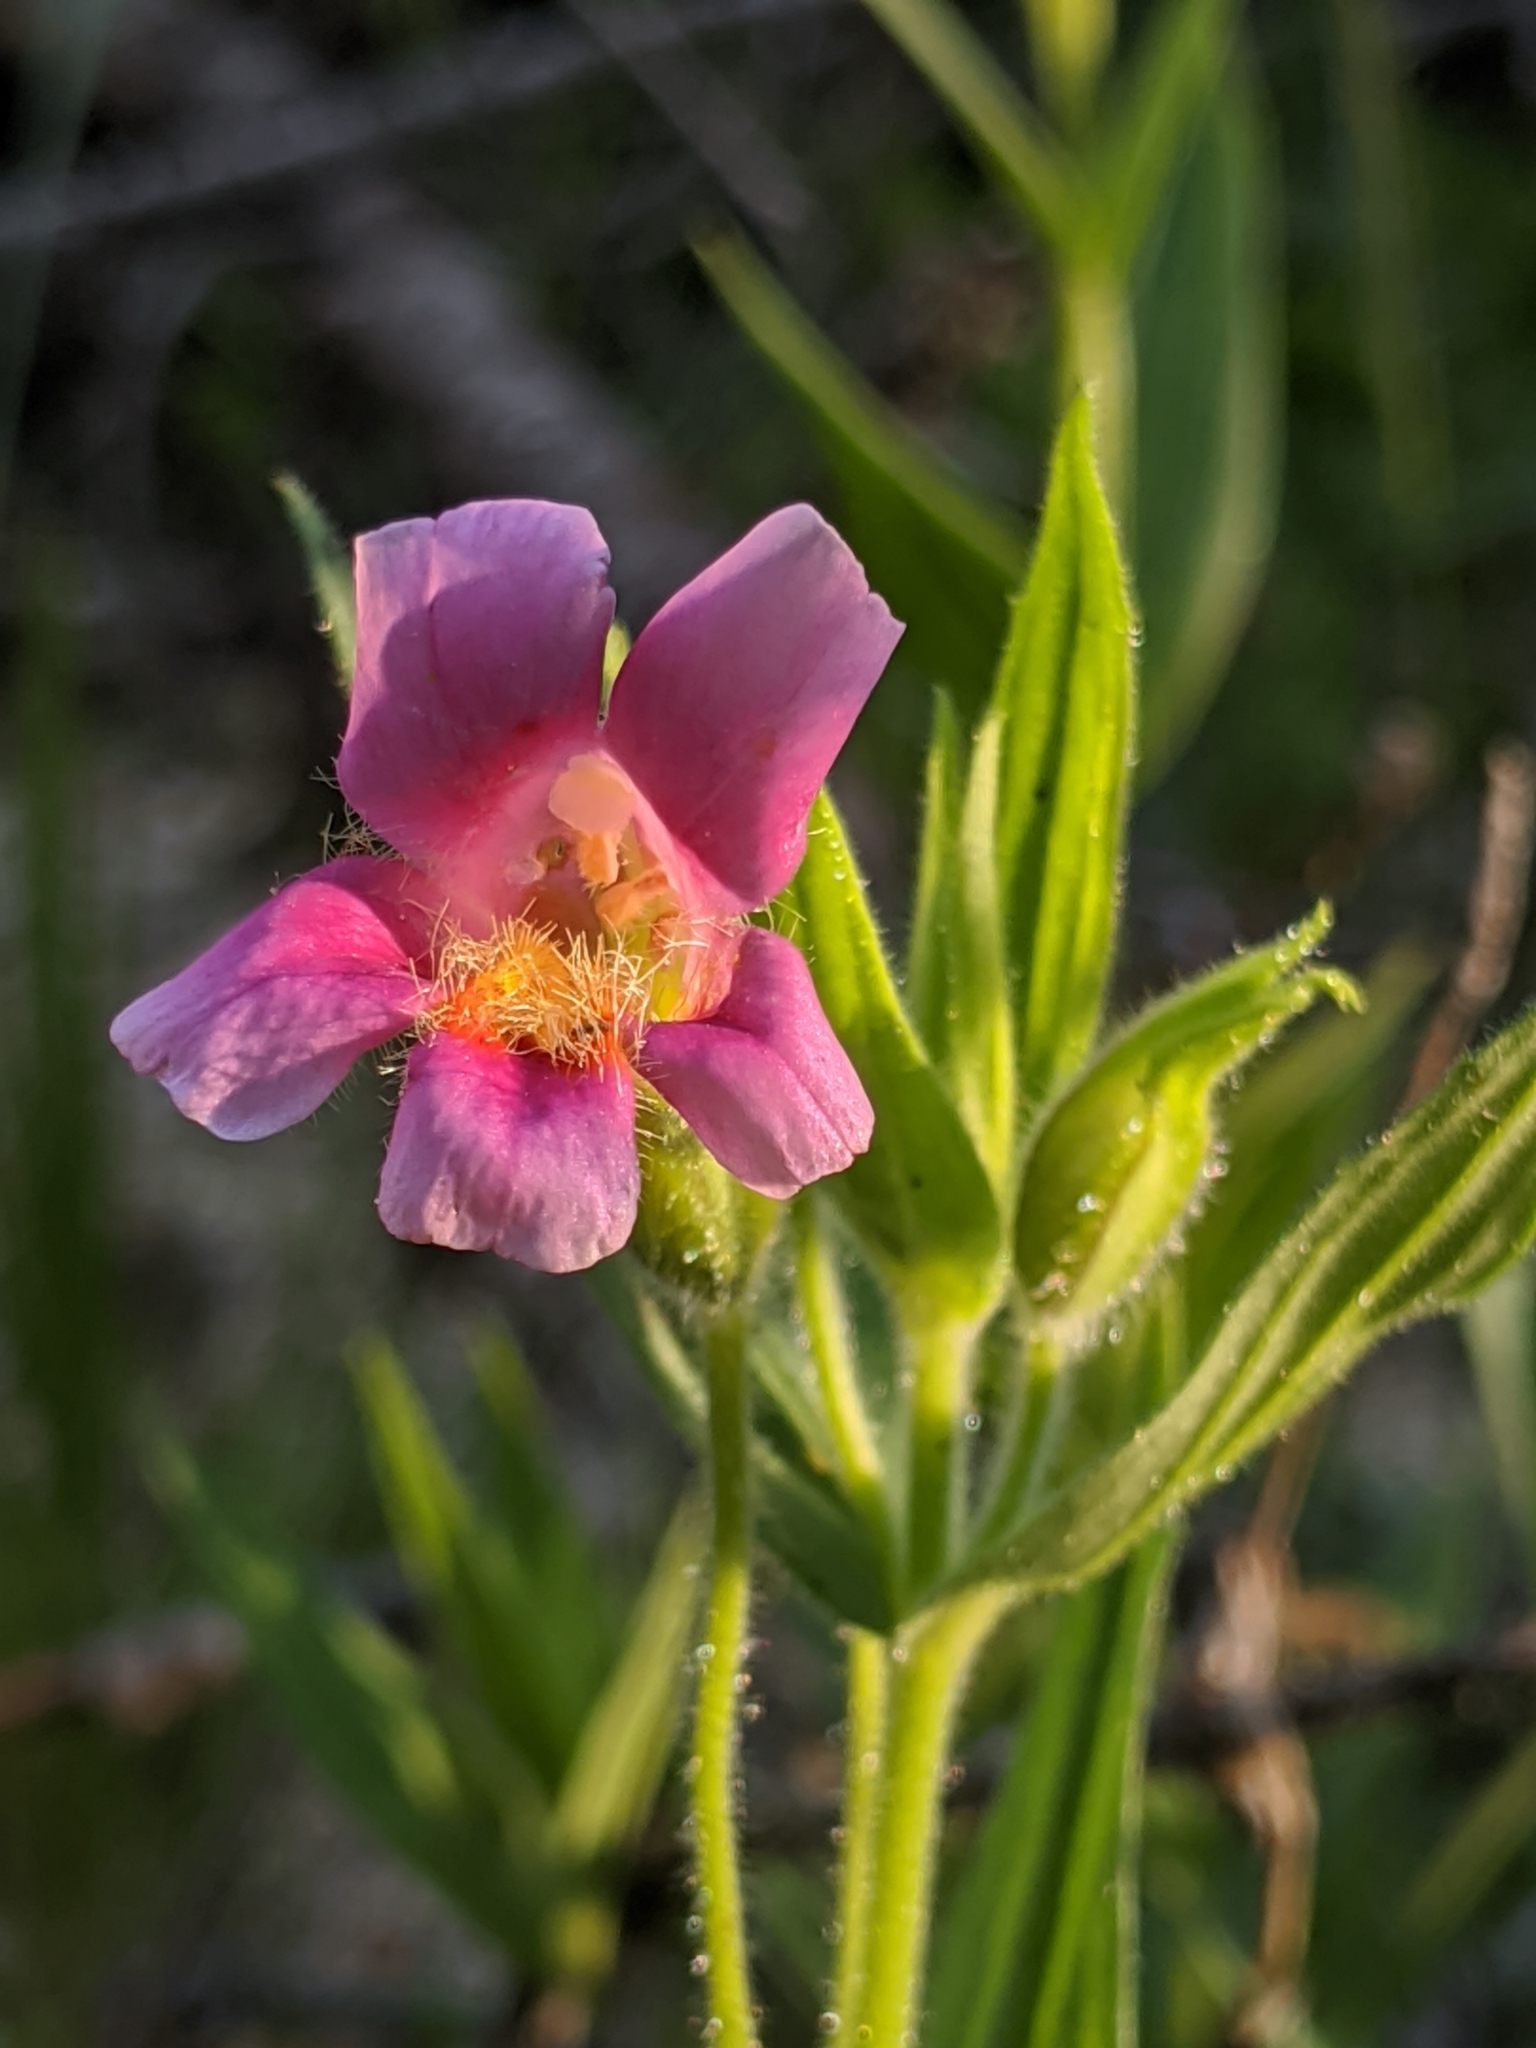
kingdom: Plantae
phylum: Tracheophyta
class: Magnoliopsida
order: Lamiales
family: Phrymaceae
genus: Erythranthe
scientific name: Erythranthe erubescens
